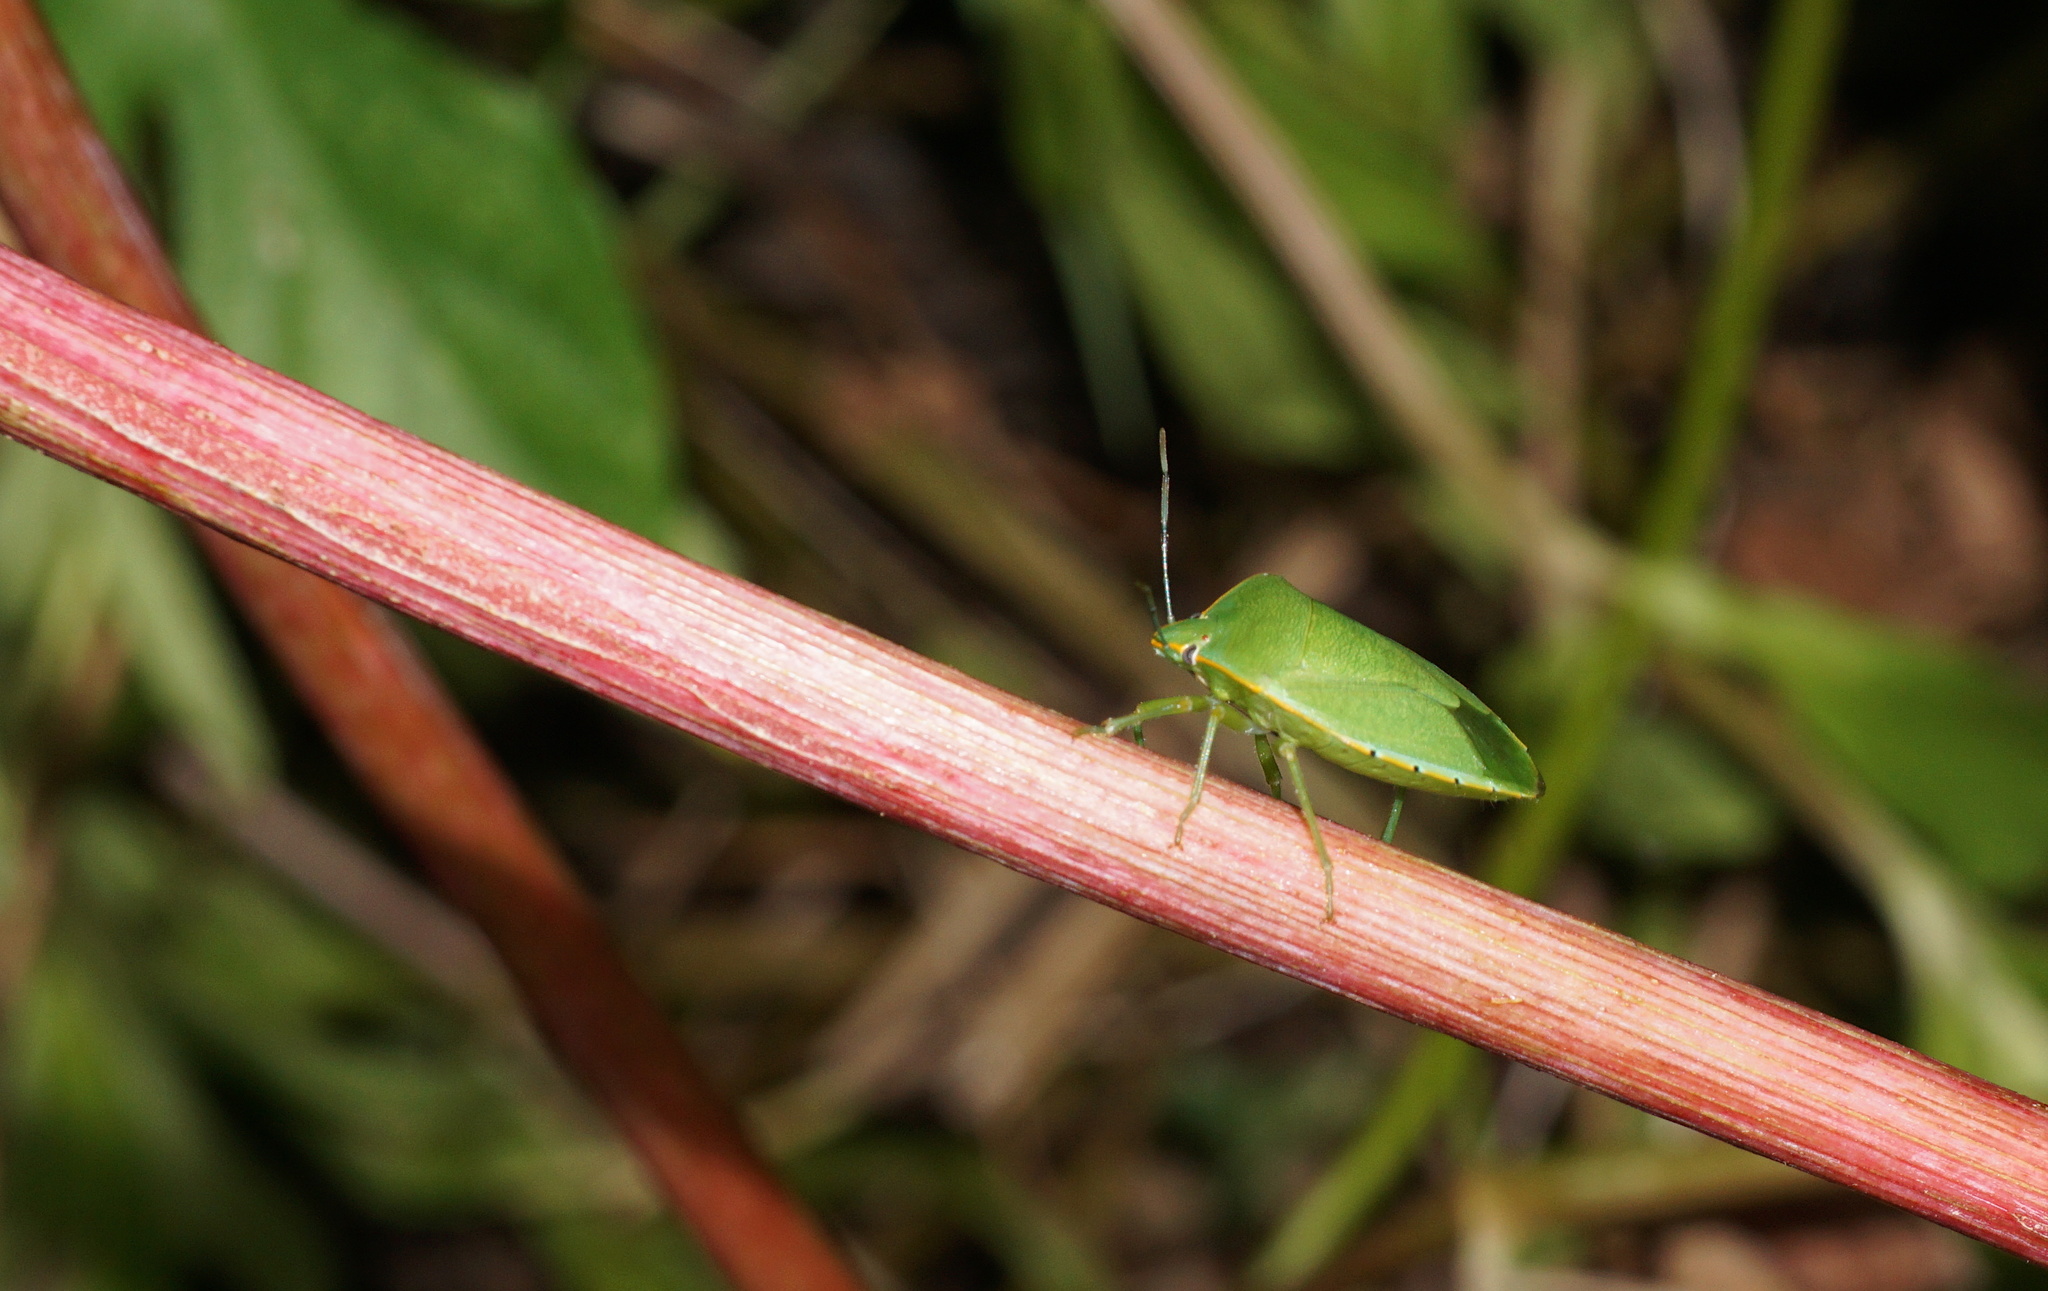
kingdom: Animalia
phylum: Arthropoda
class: Insecta
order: Hemiptera
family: Pentatomidae
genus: Acrosternum
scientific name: Acrosternum marginatum
